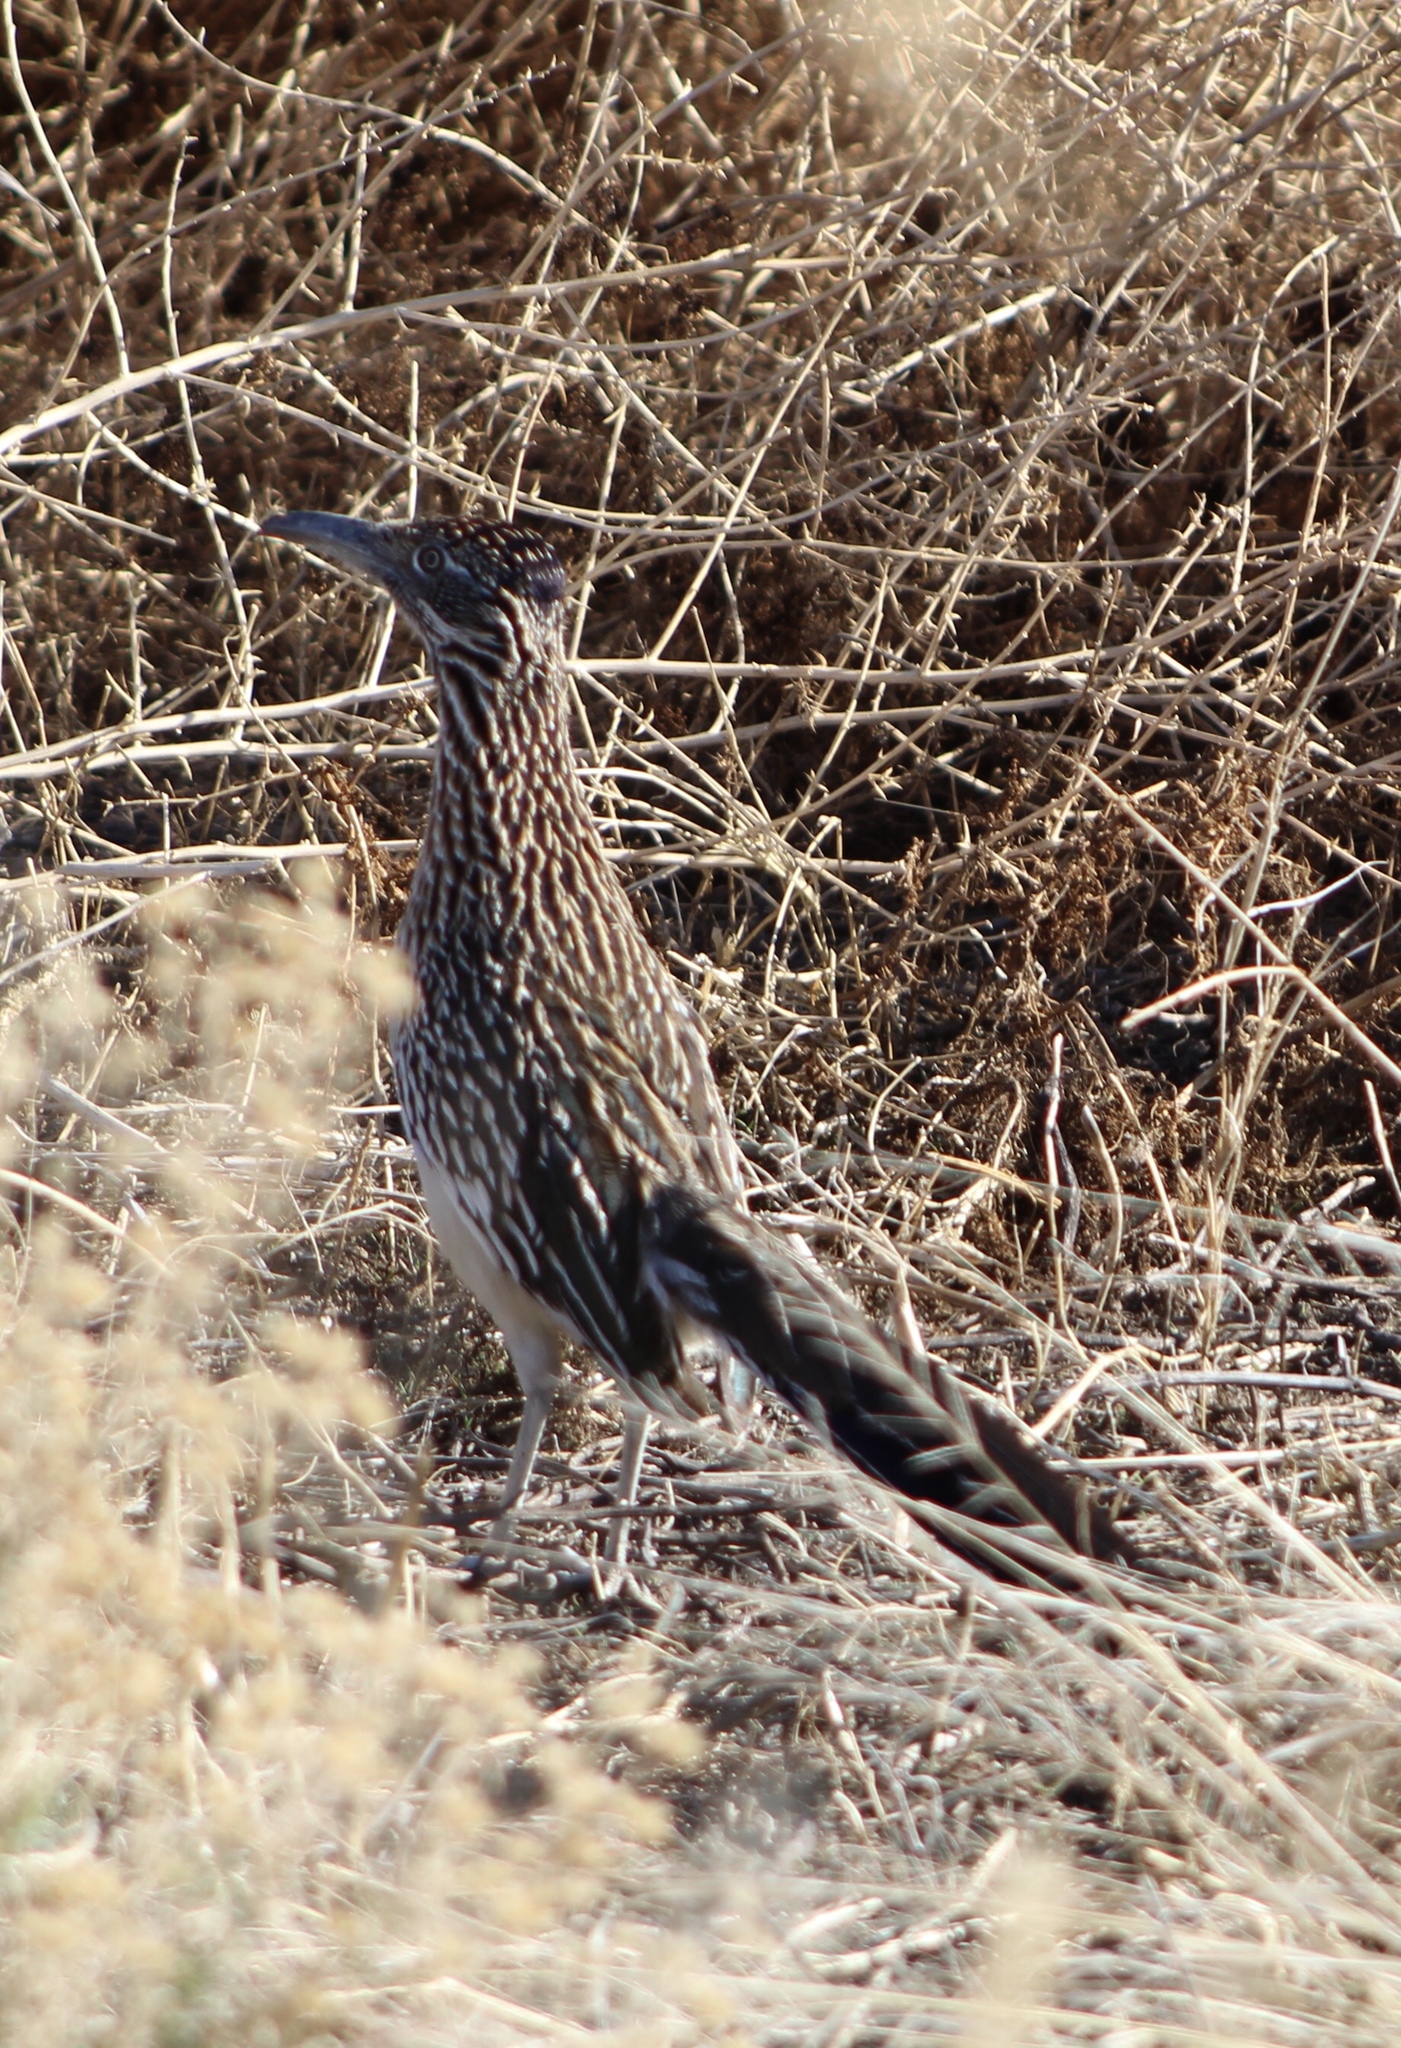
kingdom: Animalia
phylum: Chordata
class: Aves
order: Cuculiformes
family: Cuculidae
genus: Geococcyx
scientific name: Geococcyx californianus
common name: Greater roadrunner
